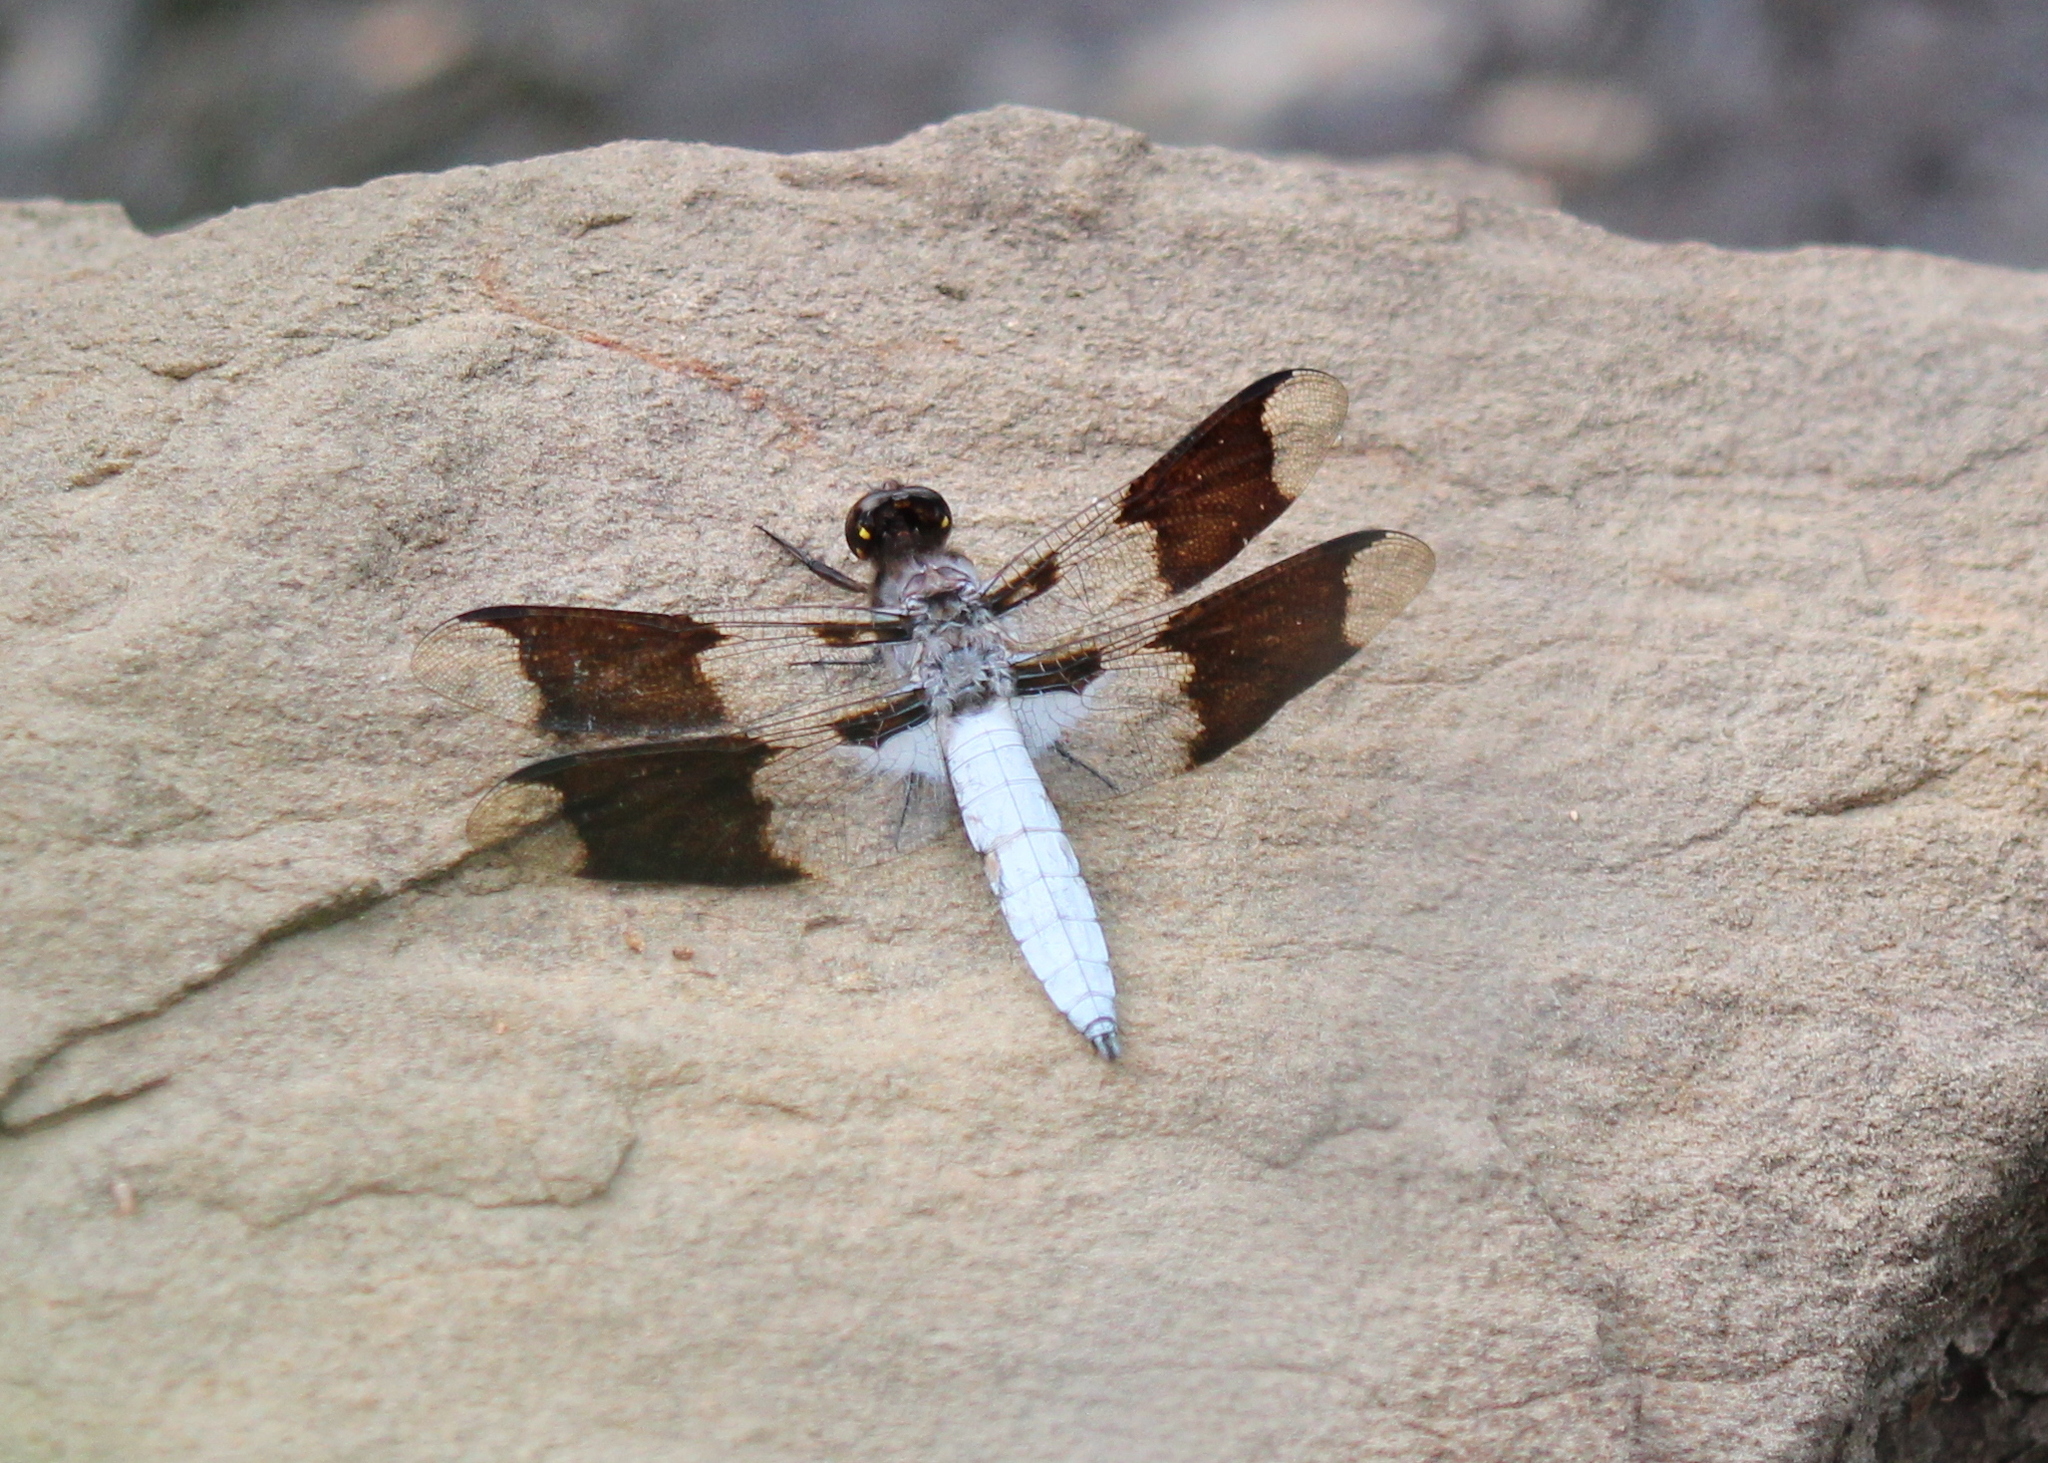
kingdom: Animalia
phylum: Arthropoda
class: Insecta
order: Odonata
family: Libellulidae
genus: Plathemis
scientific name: Plathemis lydia
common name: Common whitetail
